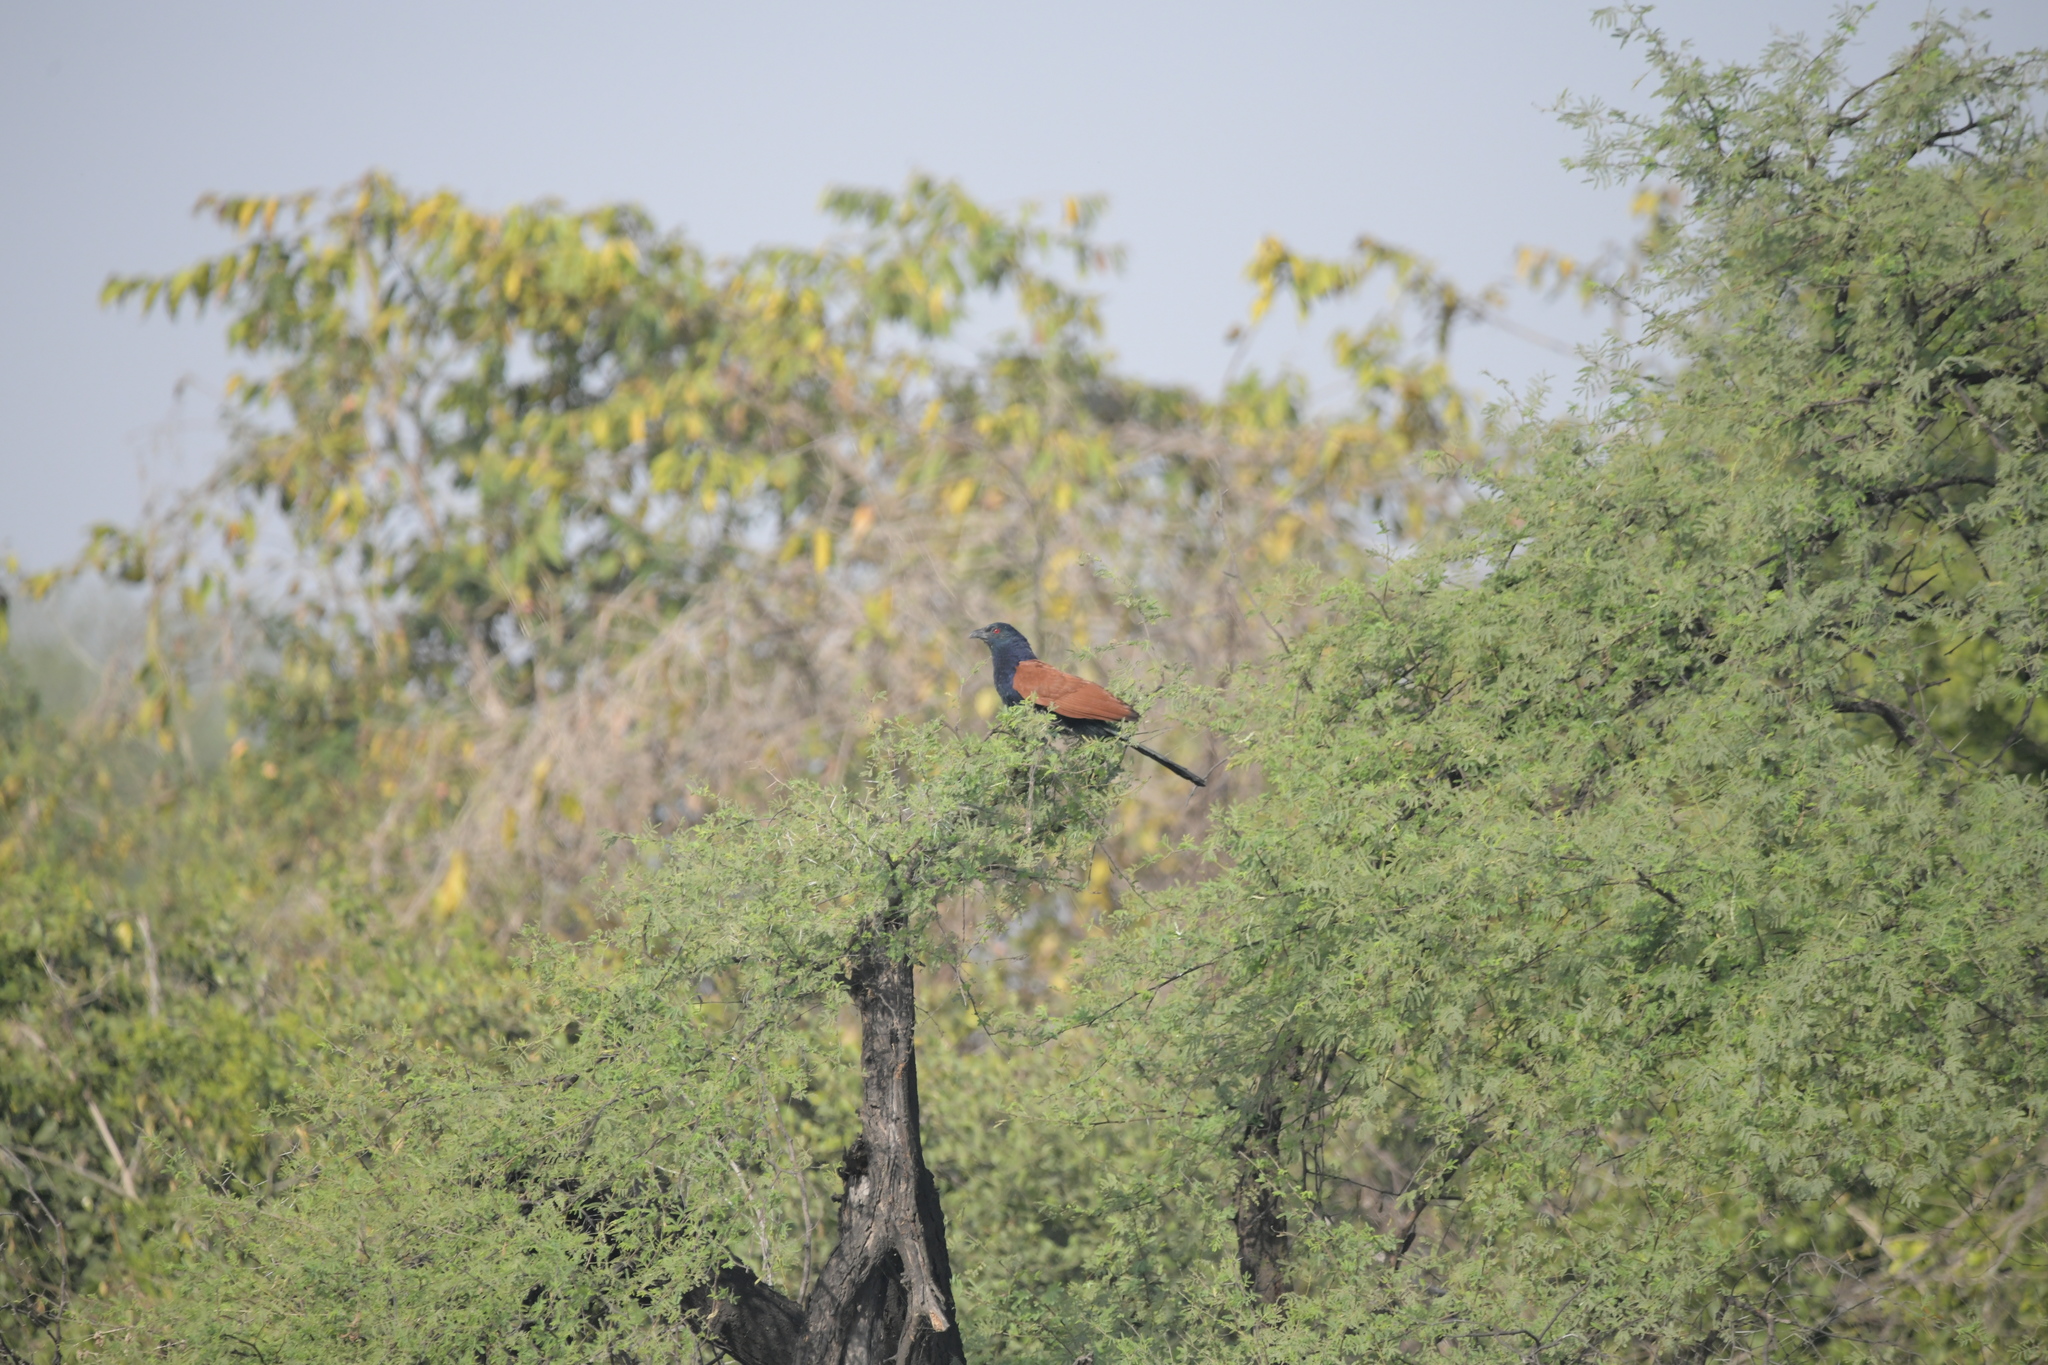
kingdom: Animalia
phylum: Chordata
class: Aves
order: Cuculiformes
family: Cuculidae
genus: Centropus
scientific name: Centropus sinensis
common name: Greater coucal
